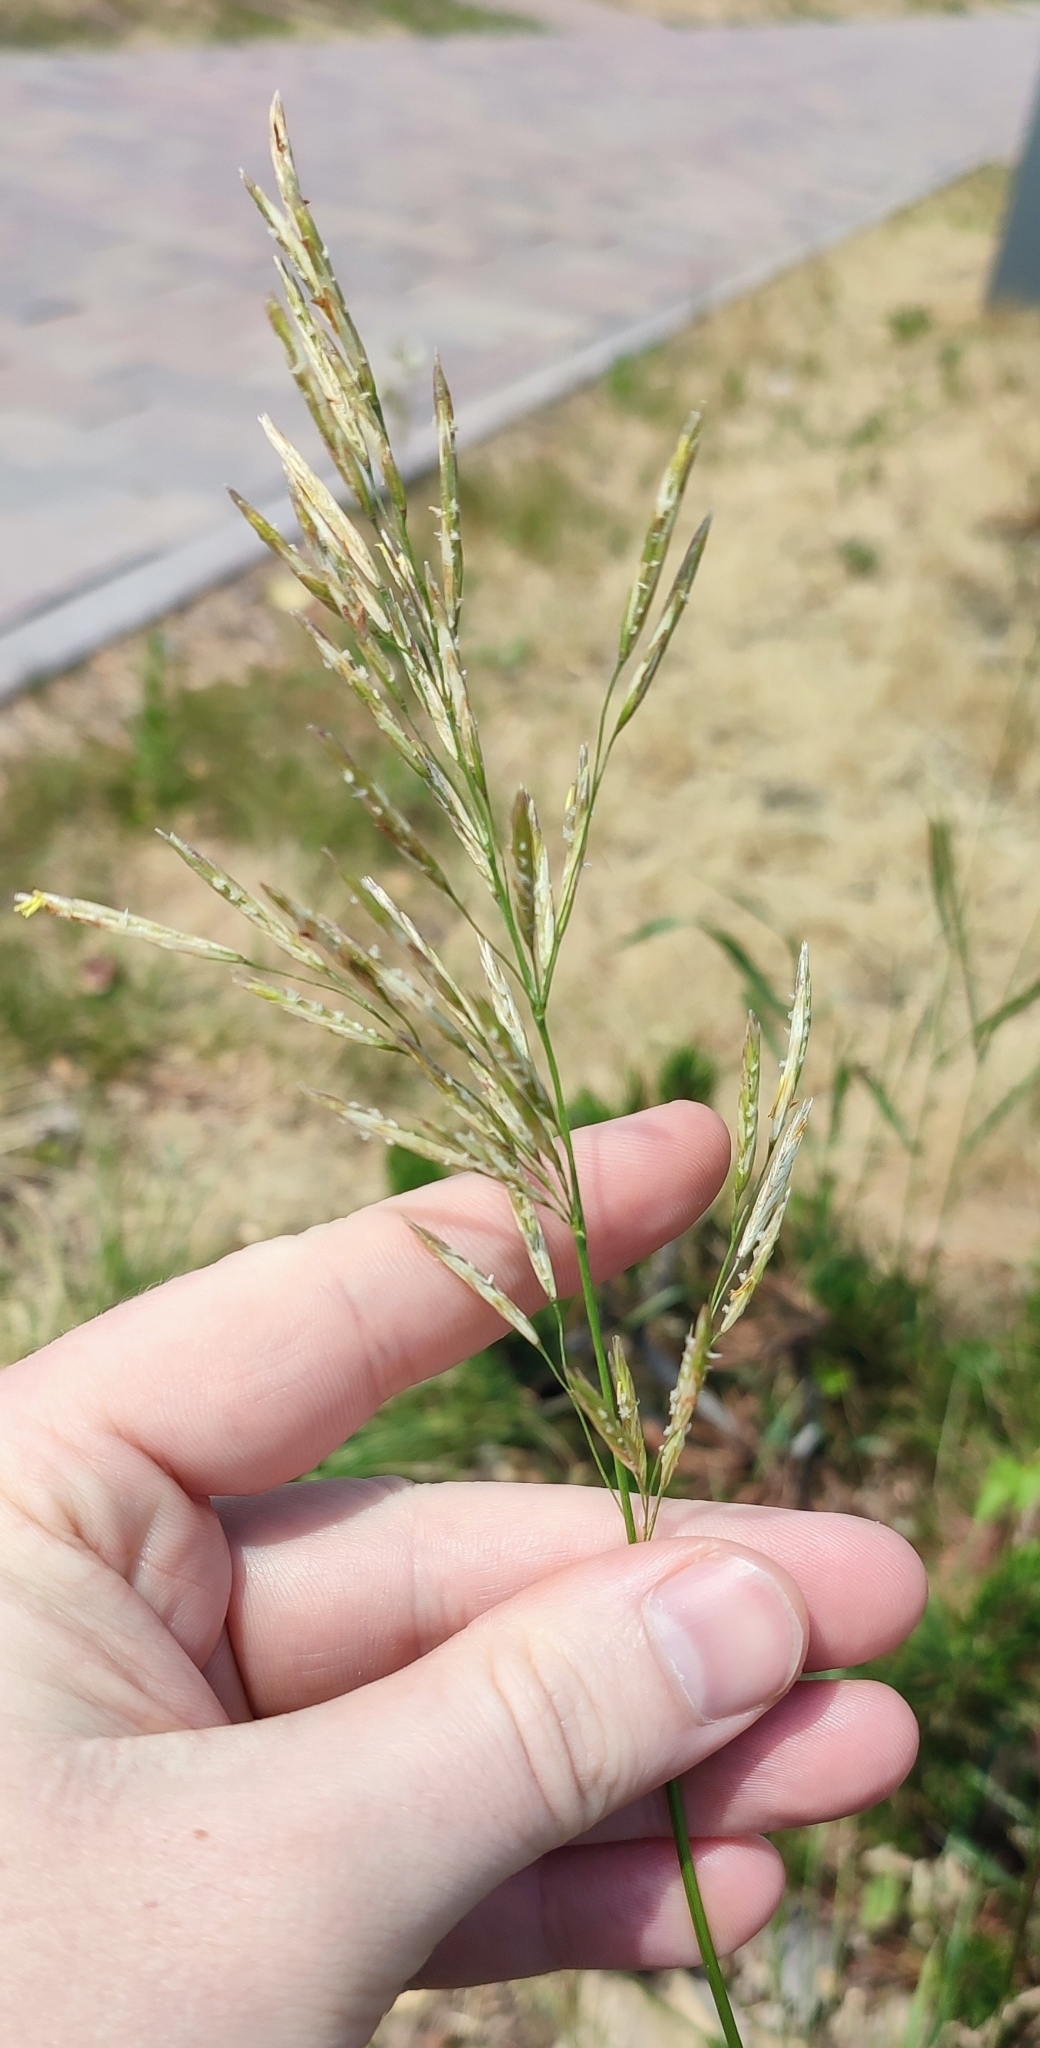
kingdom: Plantae
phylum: Tracheophyta
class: Liliopsida
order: Poales
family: Poaceae
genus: Bromus
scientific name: Bromus inermis
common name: Smooth brome
